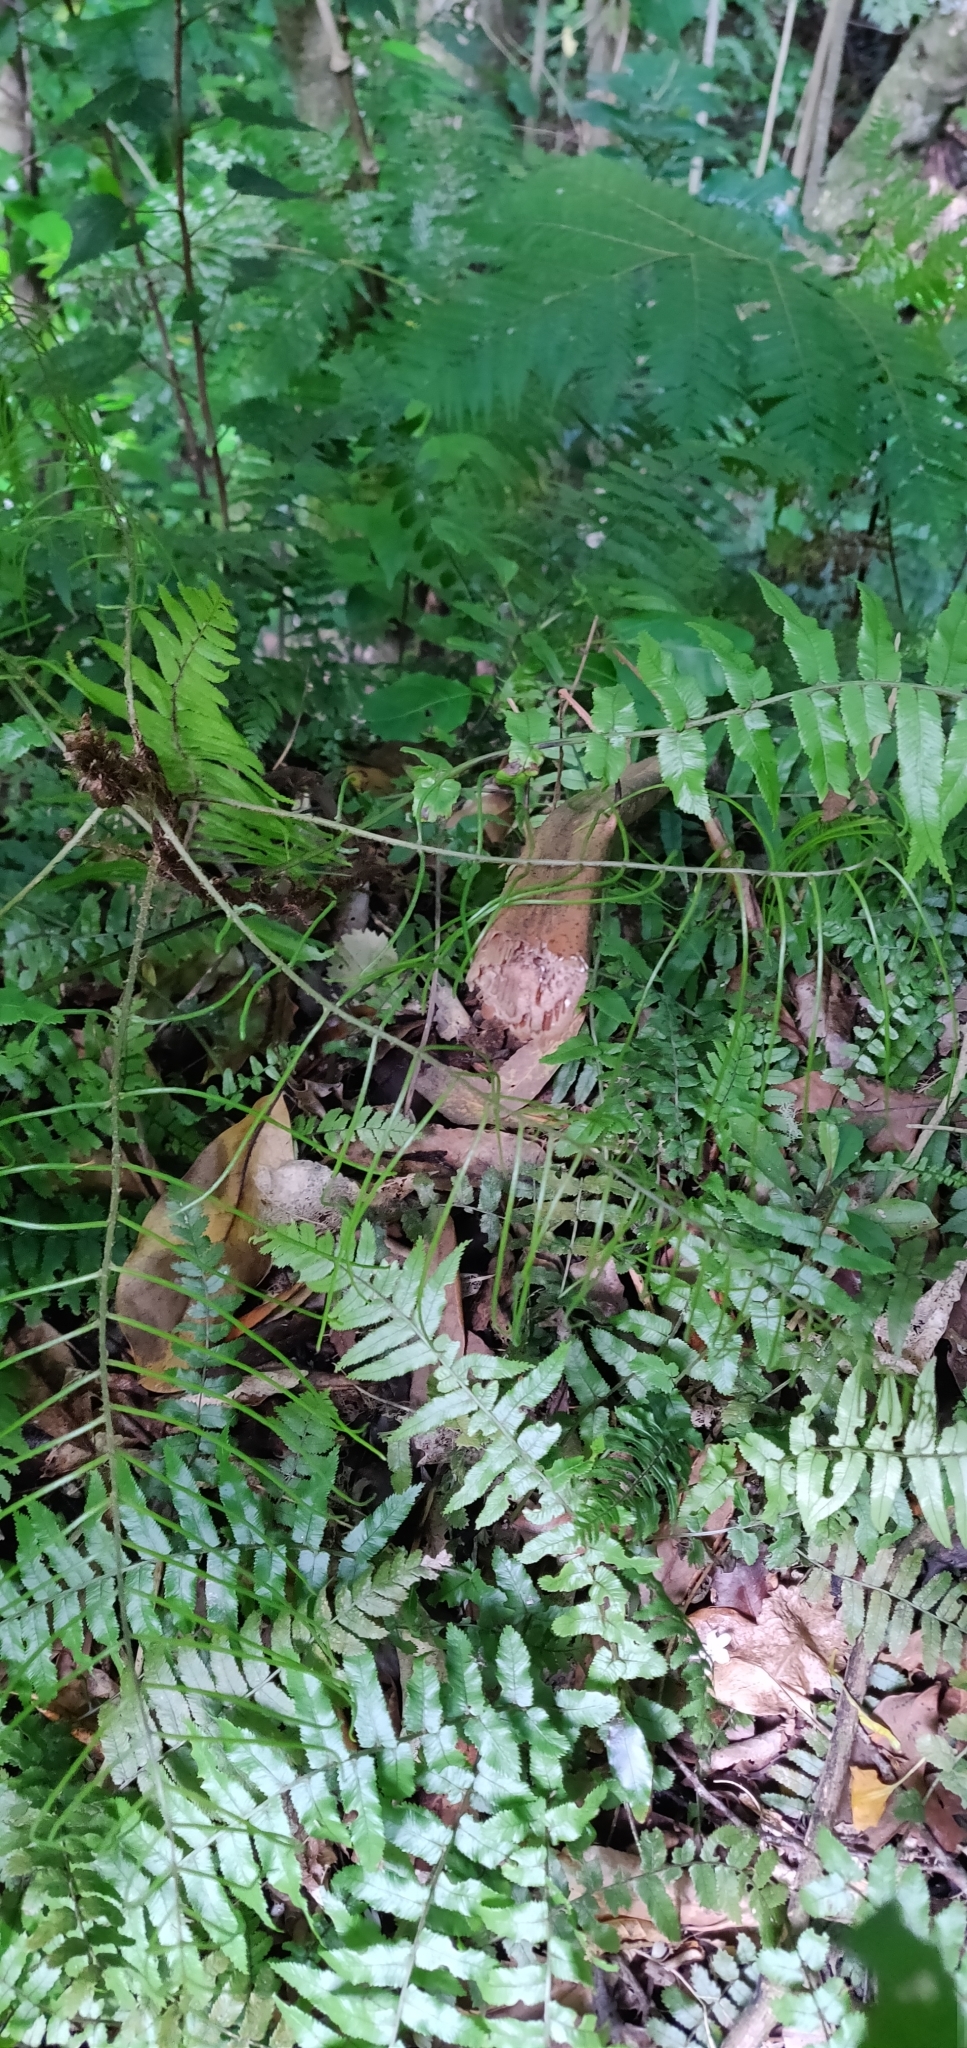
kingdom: Plantae
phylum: Tracheophyta
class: Polypodiopsida
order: Polypodiales
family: Blechnaceae
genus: Icarus
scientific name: Icarus filiformis
